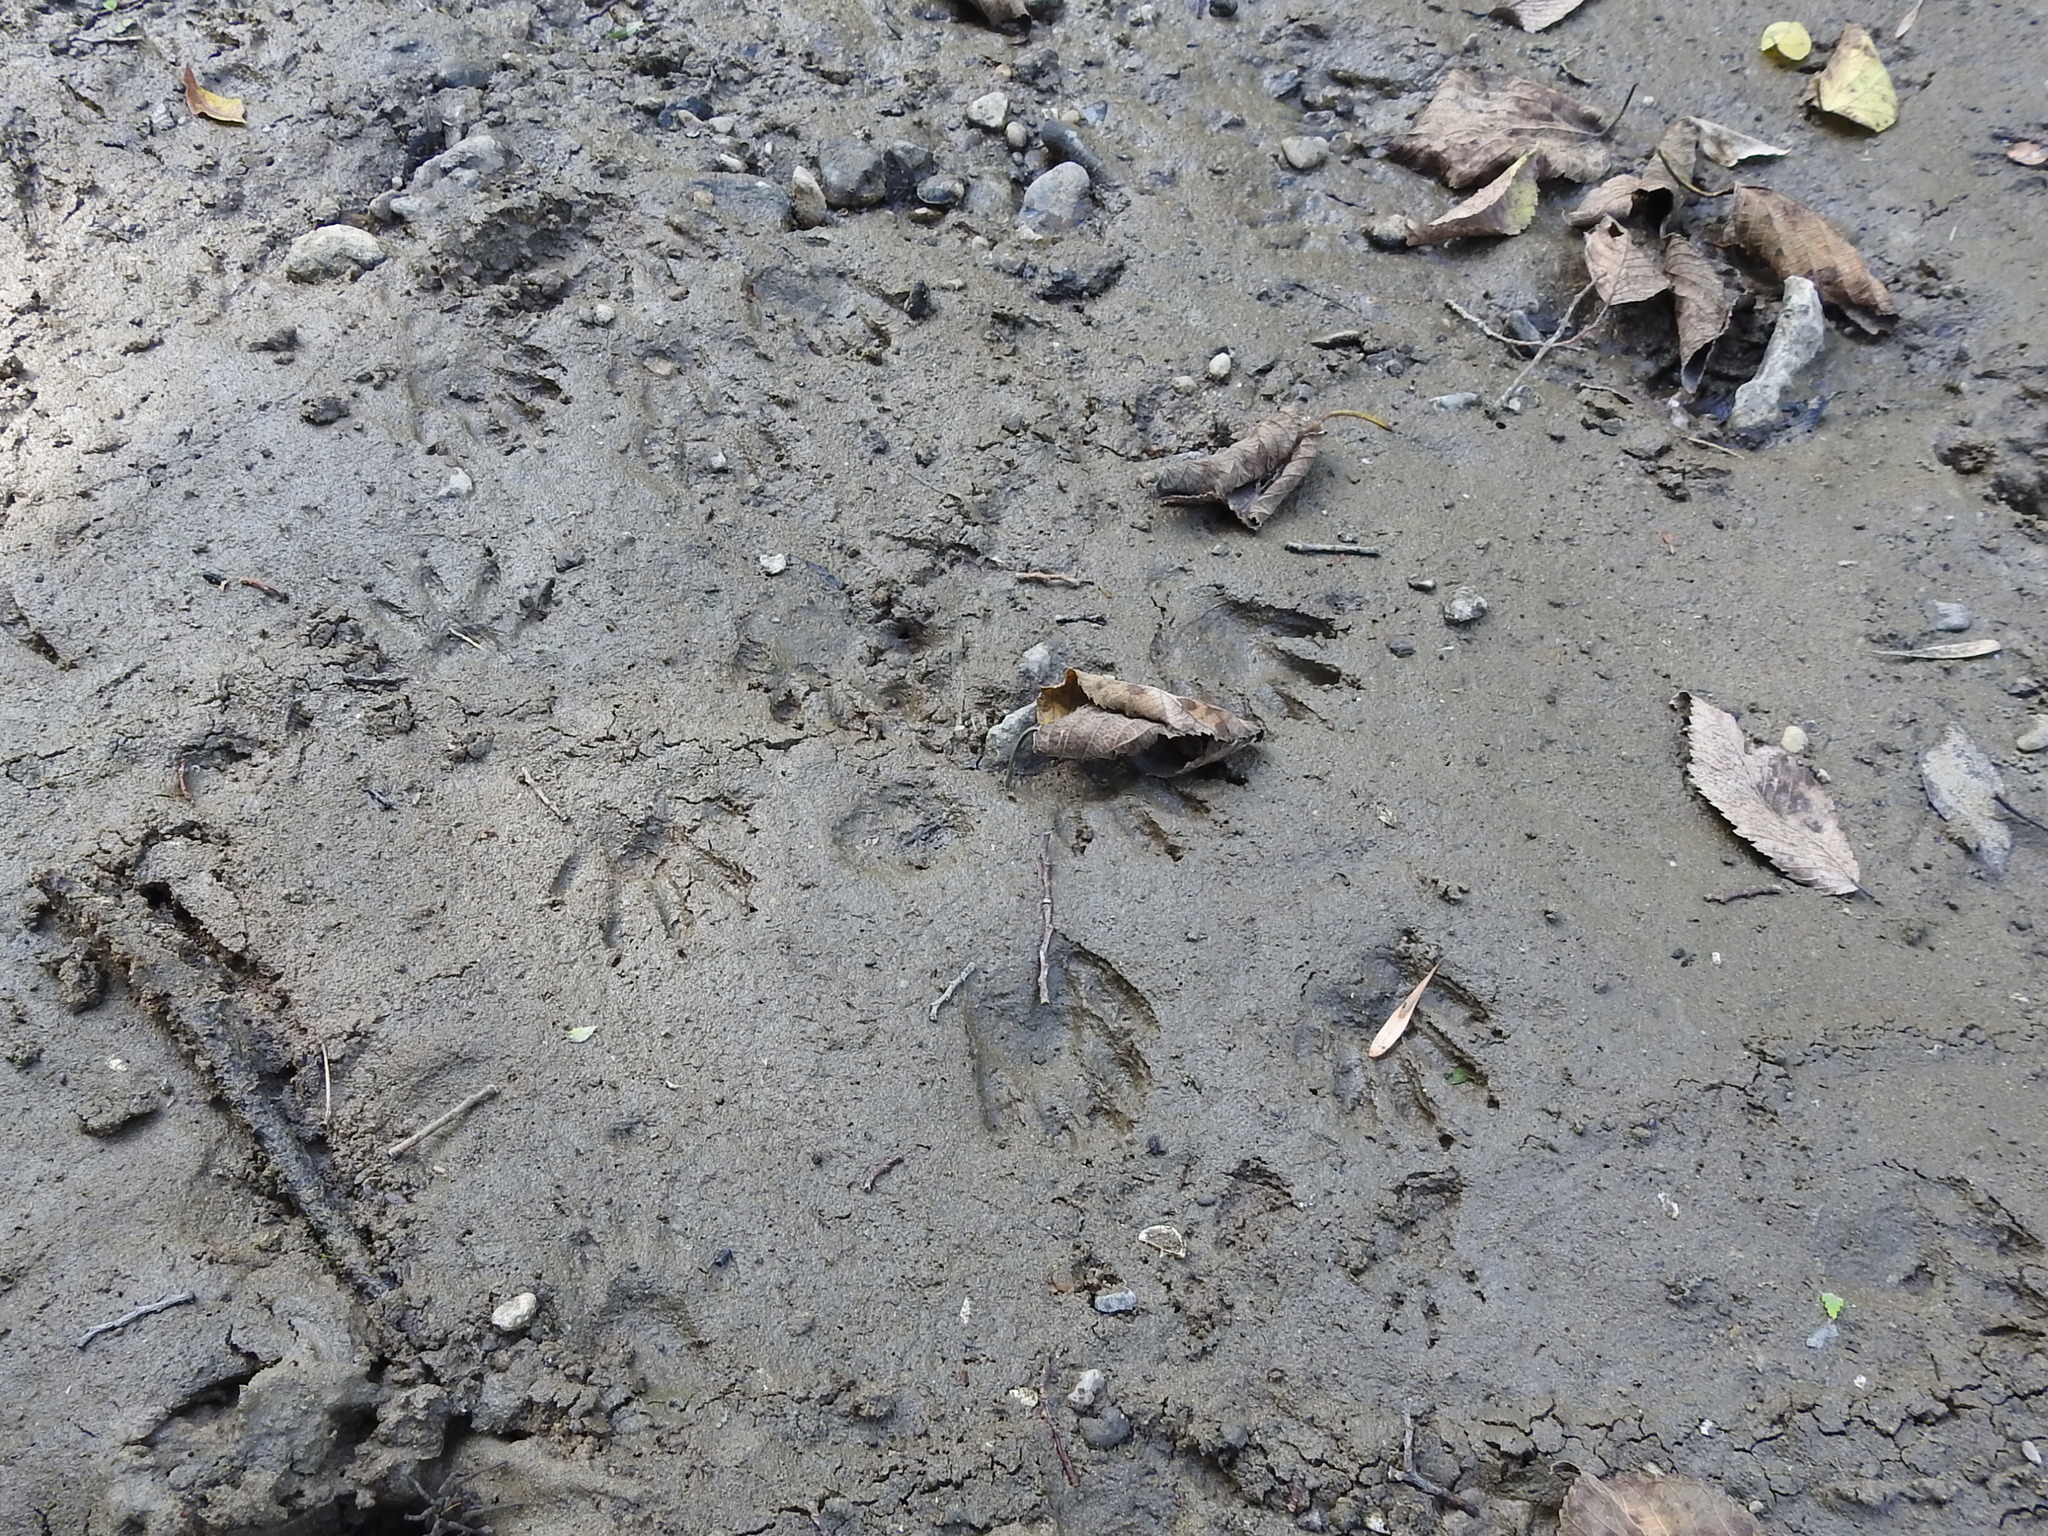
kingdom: Animalia
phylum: Chordata
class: Mammalia
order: Carnivora
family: Procyonidae
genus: Procyon
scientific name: Procyon lotor
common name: Raccoon
